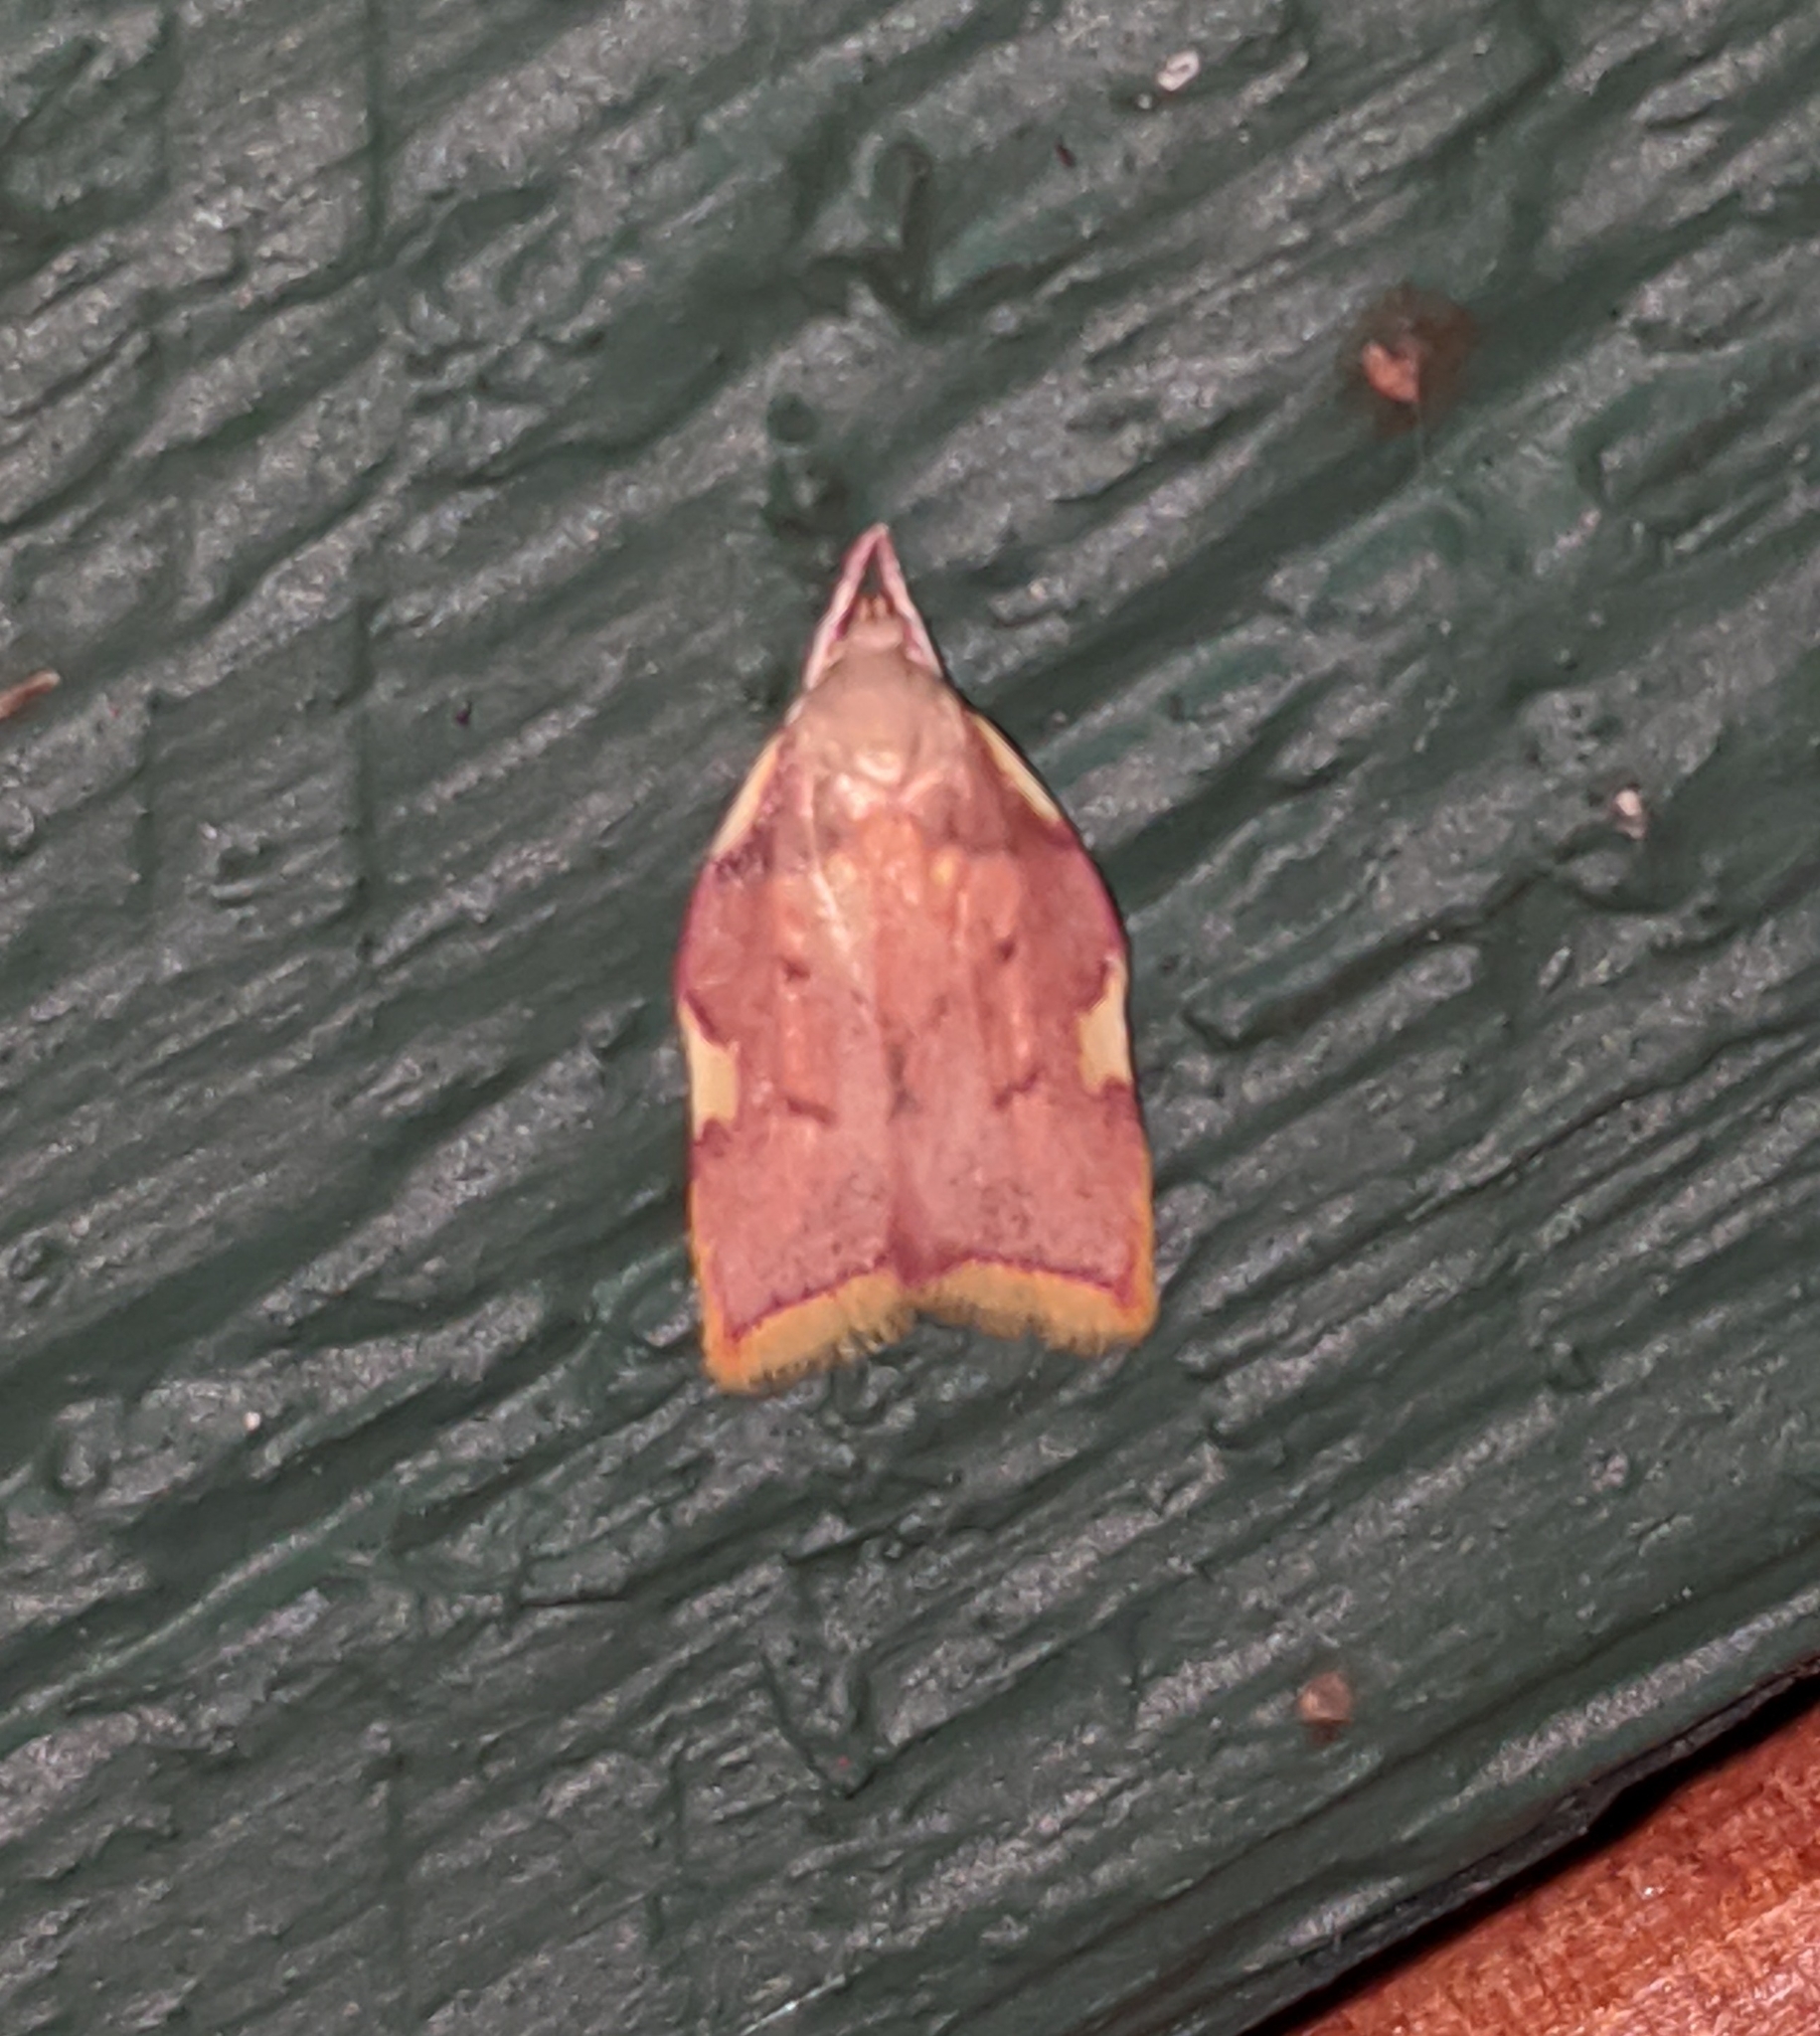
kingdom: Animalia
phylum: Arthropoda
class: Insecta
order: Lepidoptera
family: Peleopodidae
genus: Carcina
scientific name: Carcina quercana
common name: Moth
